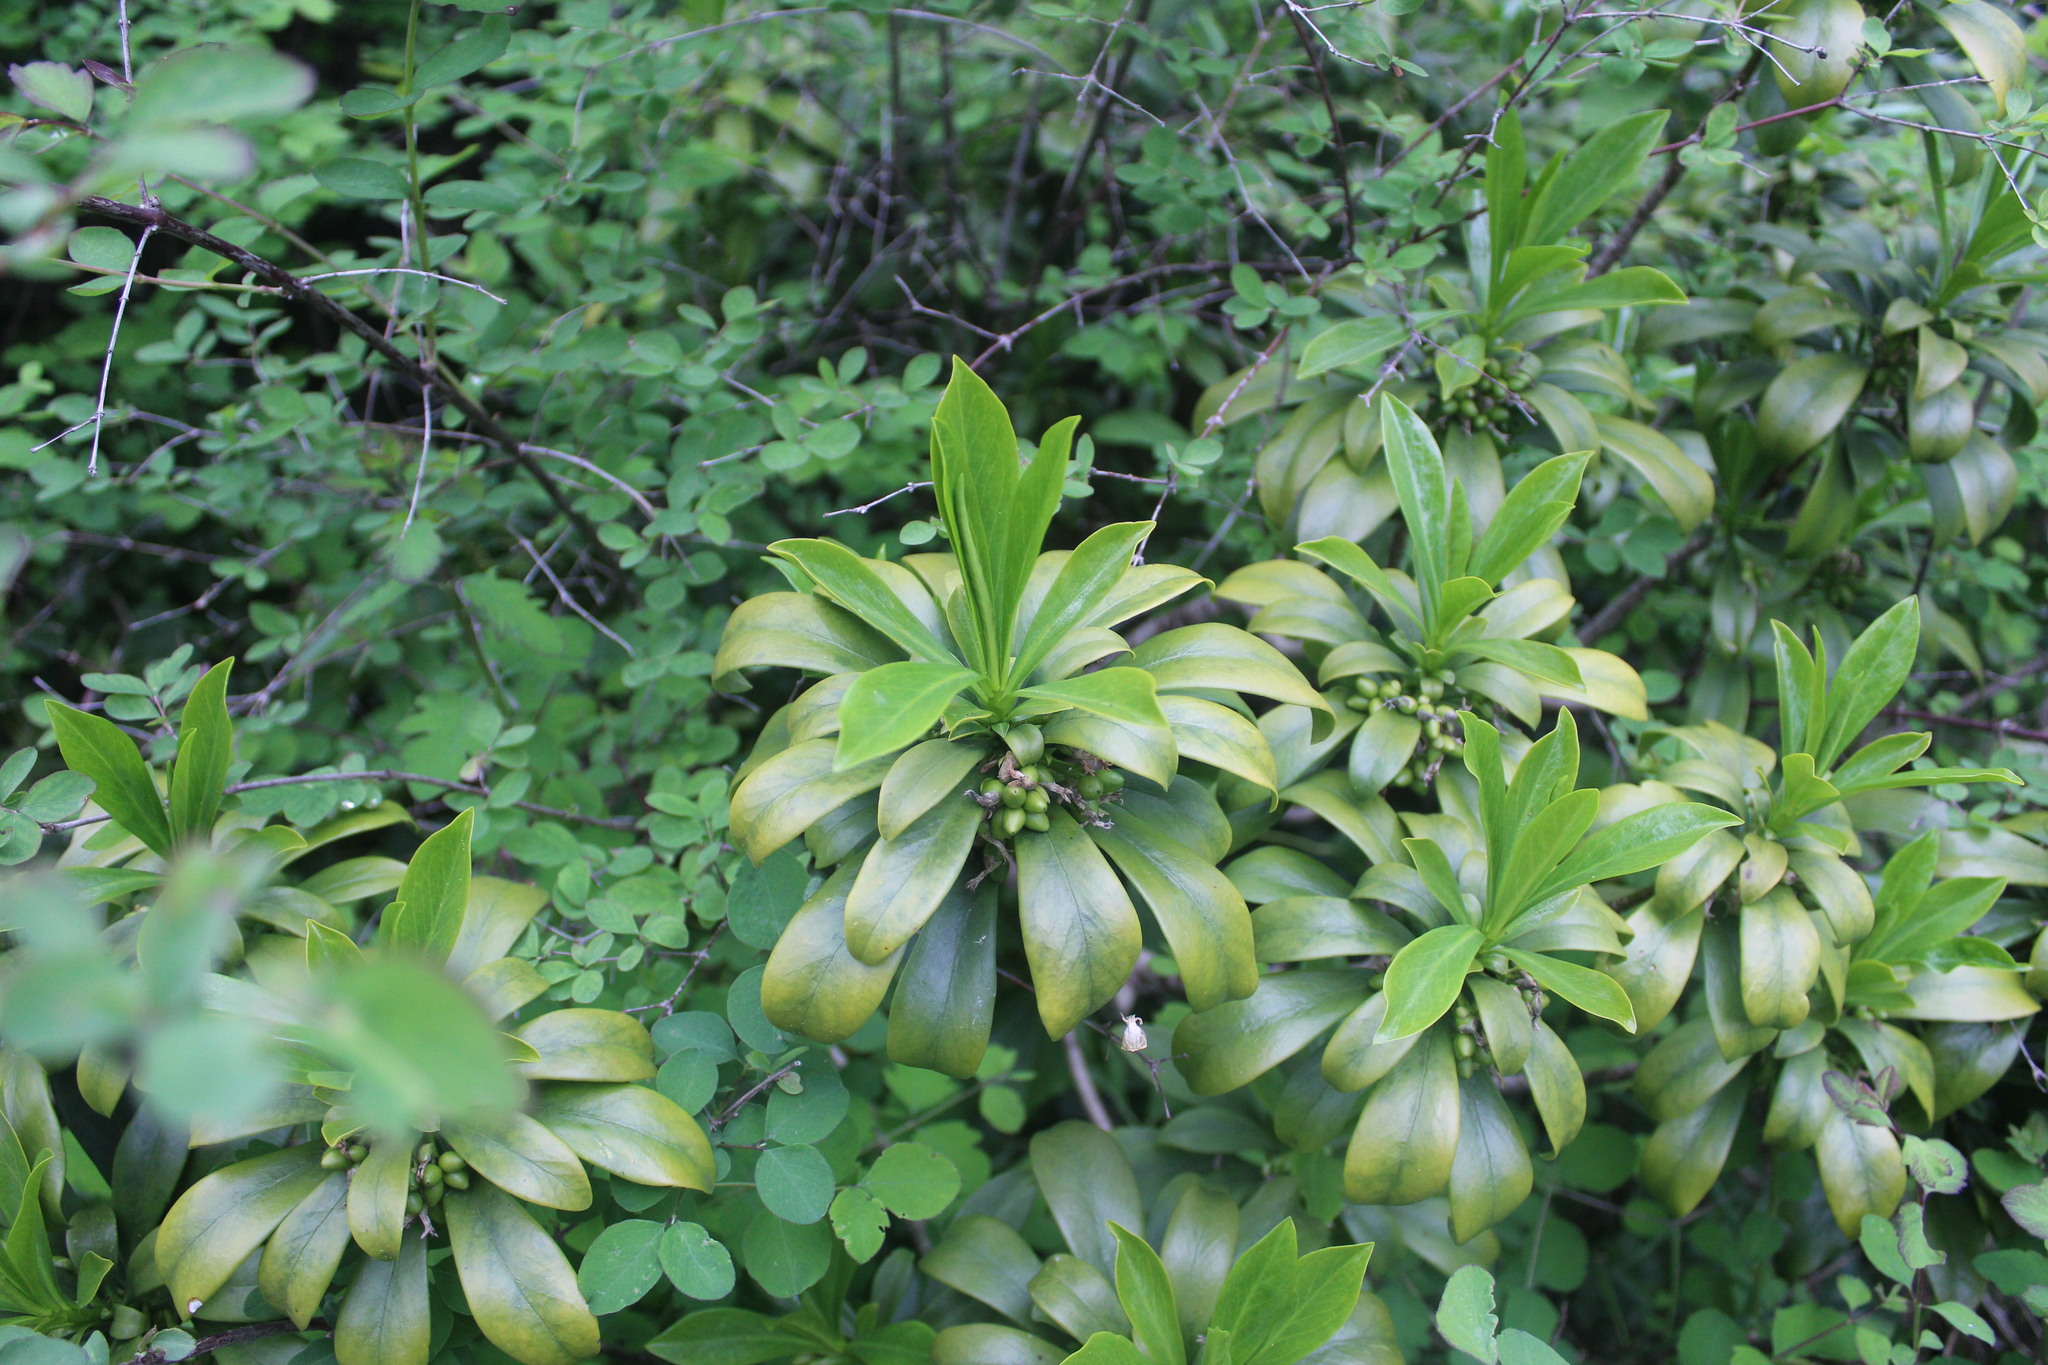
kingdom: Plantae
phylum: Tracheophyta
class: Magnoliopsida
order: Malvales
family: Thymelaeaceae
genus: Daphne
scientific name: Daphne laureola
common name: Spurge-laurel
